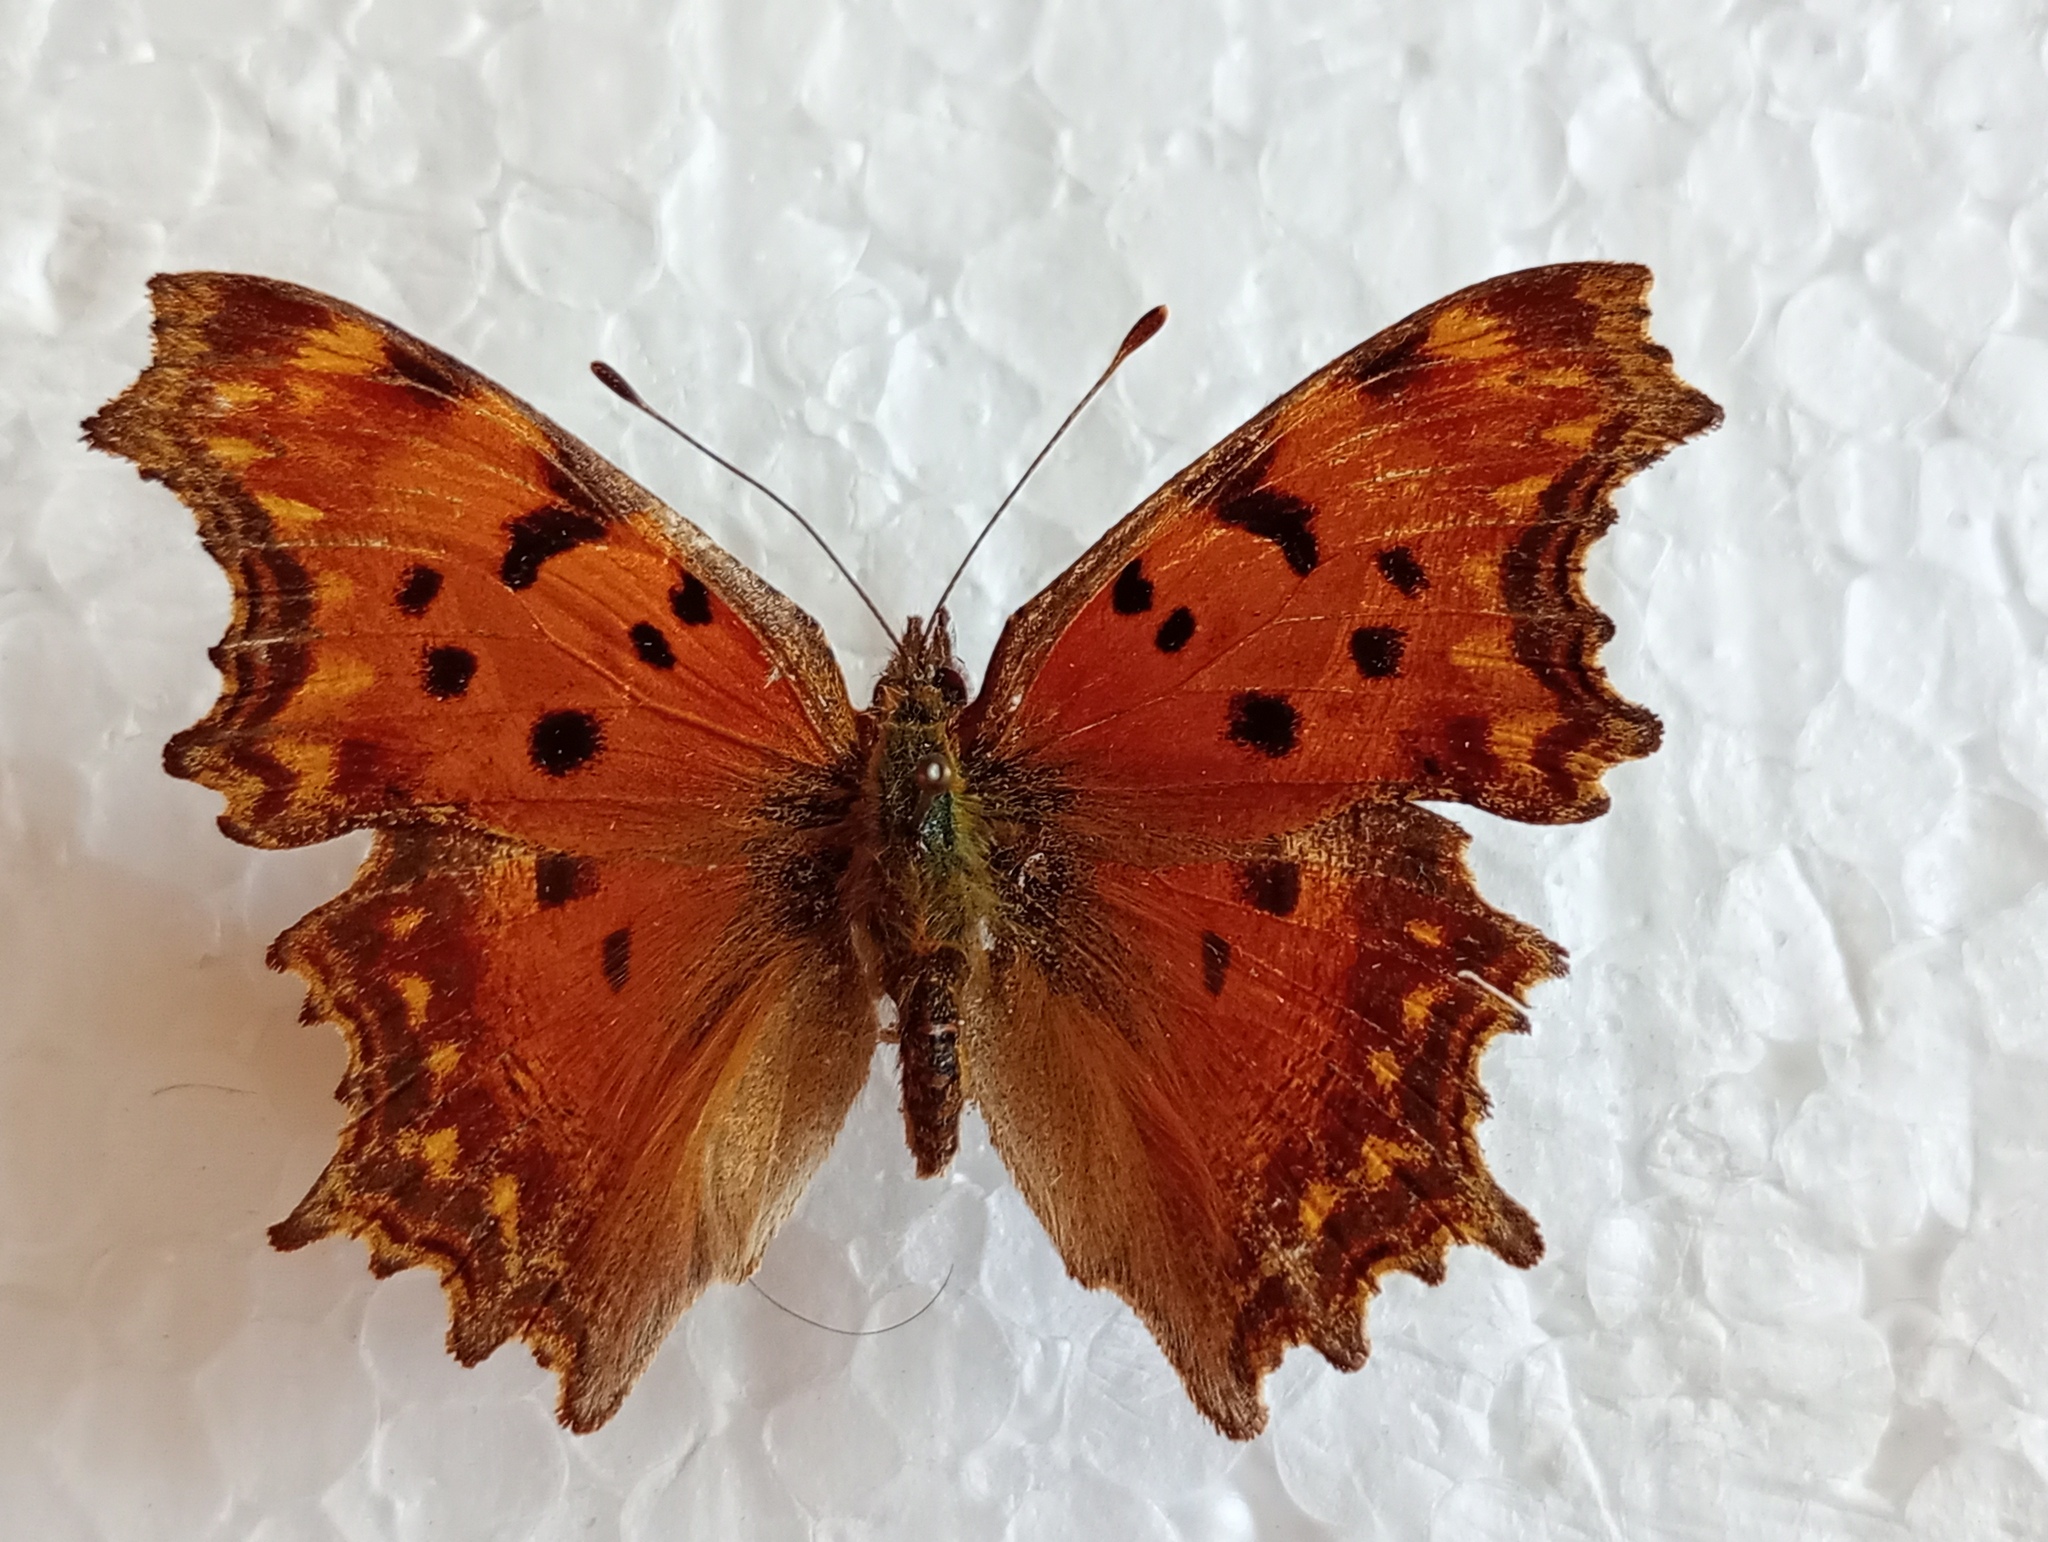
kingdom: Animalia
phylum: Arthropoda
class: Insecta
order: Lepidoptera
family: Nymphalidae
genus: Polygonia
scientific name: Polygonia egea
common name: Southern comma
